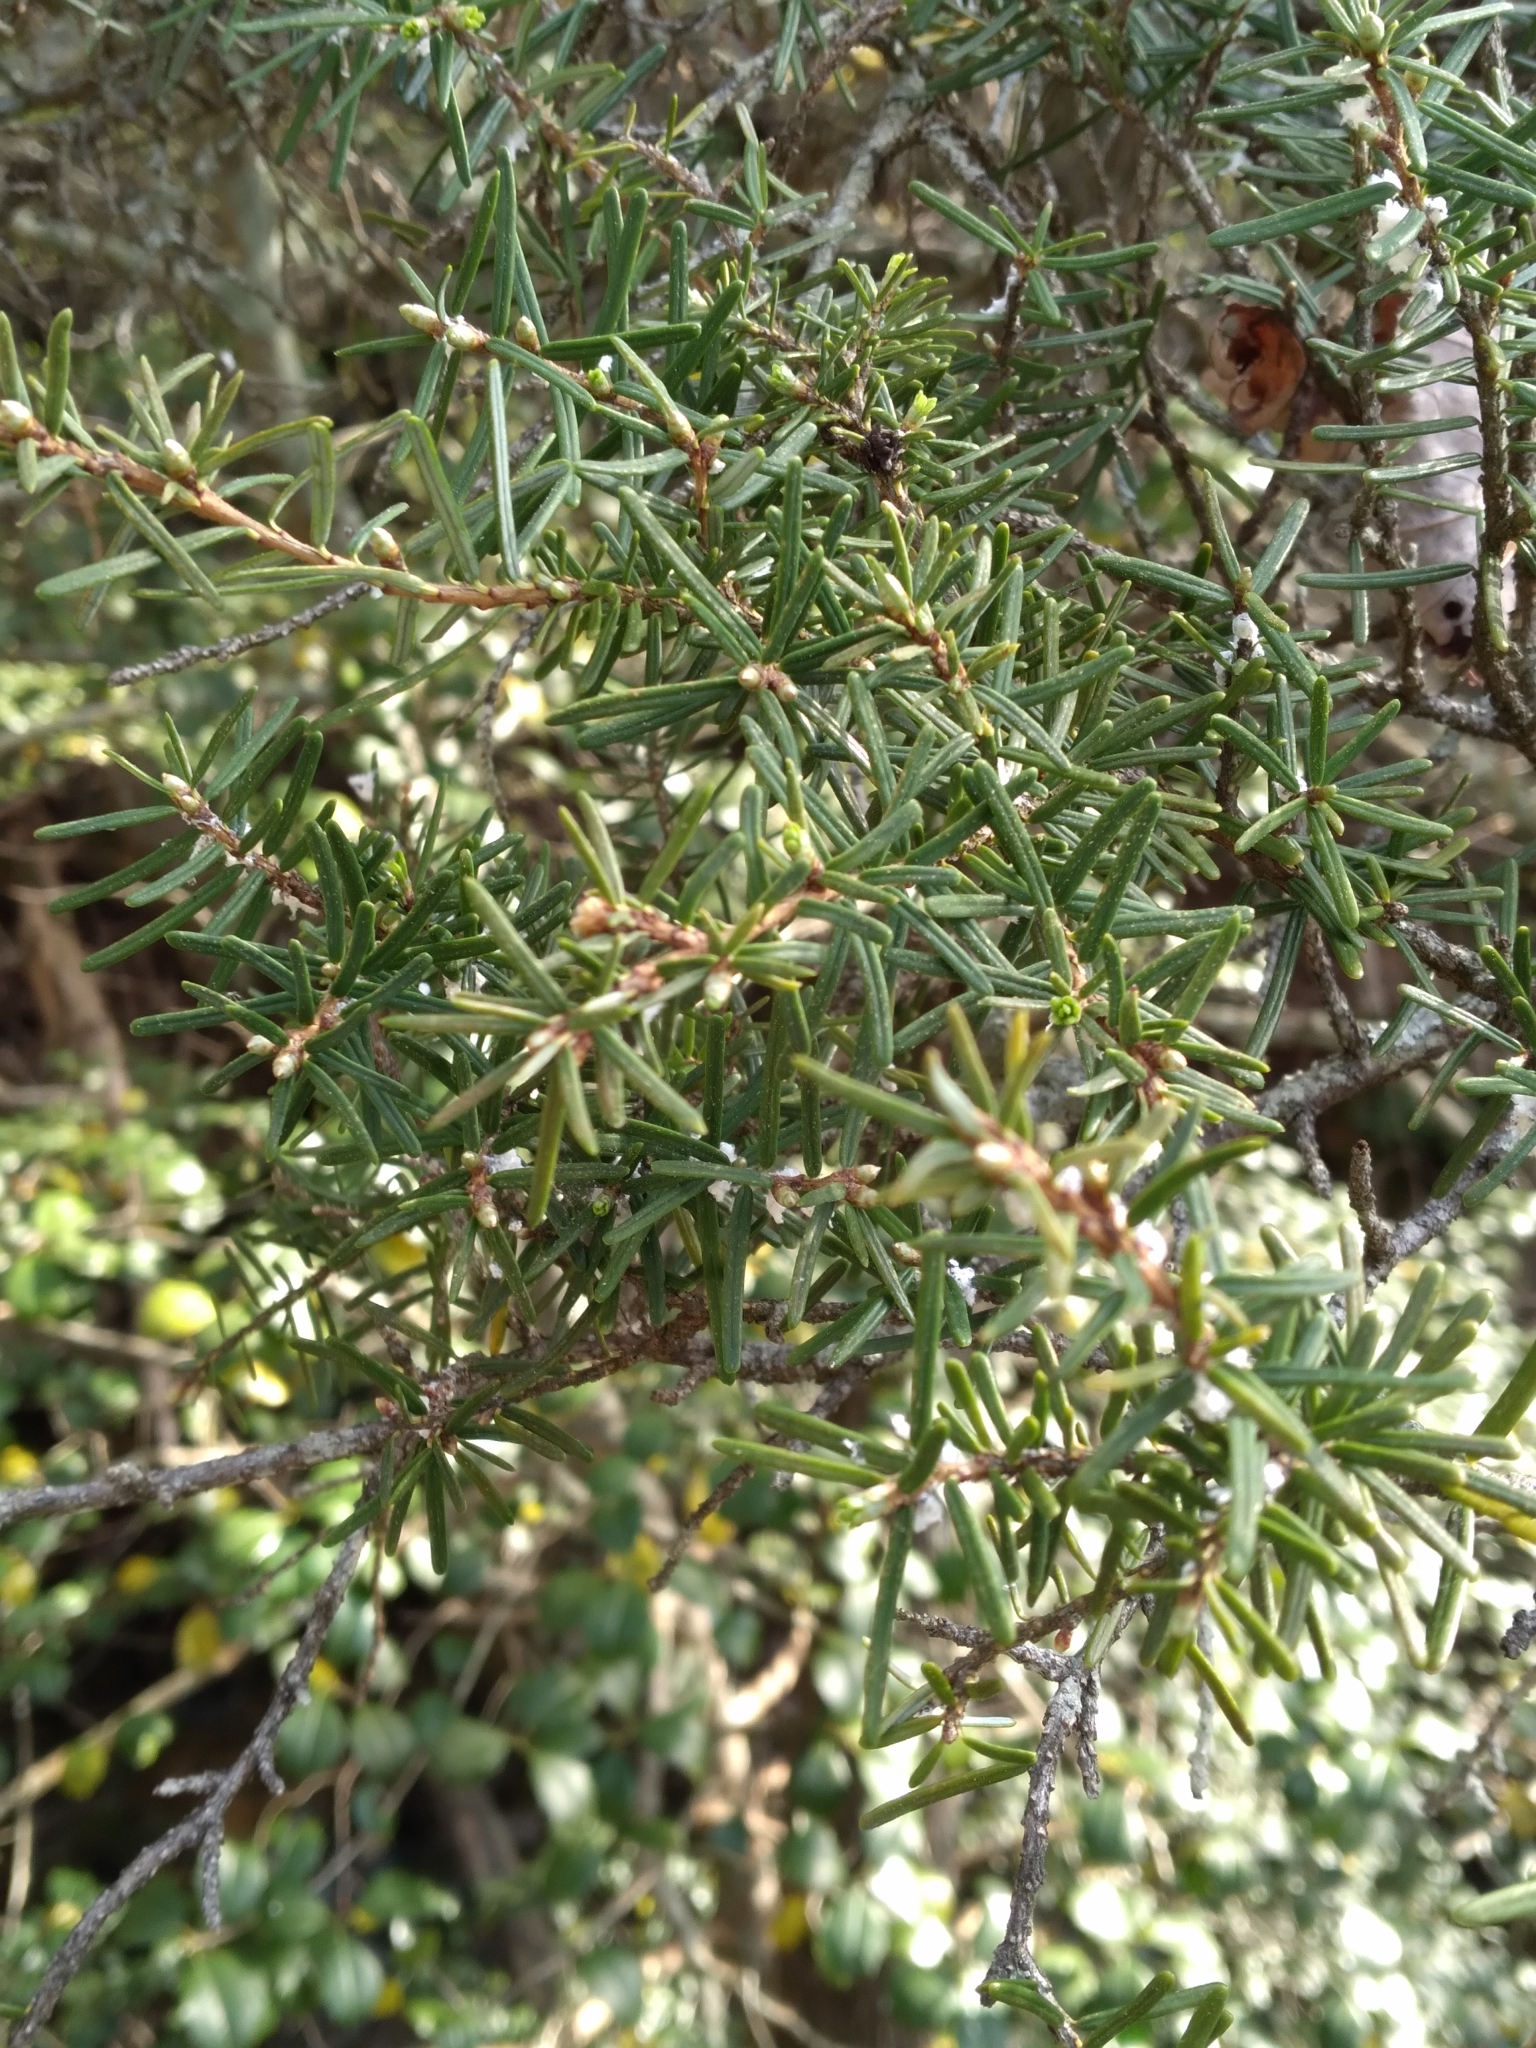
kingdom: Plantae
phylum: Tracheophyta
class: Pinopsida
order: Pinales
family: Pinaceae
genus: Tsuga
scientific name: Tsuga caroliniana
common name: Carolina hemlock
